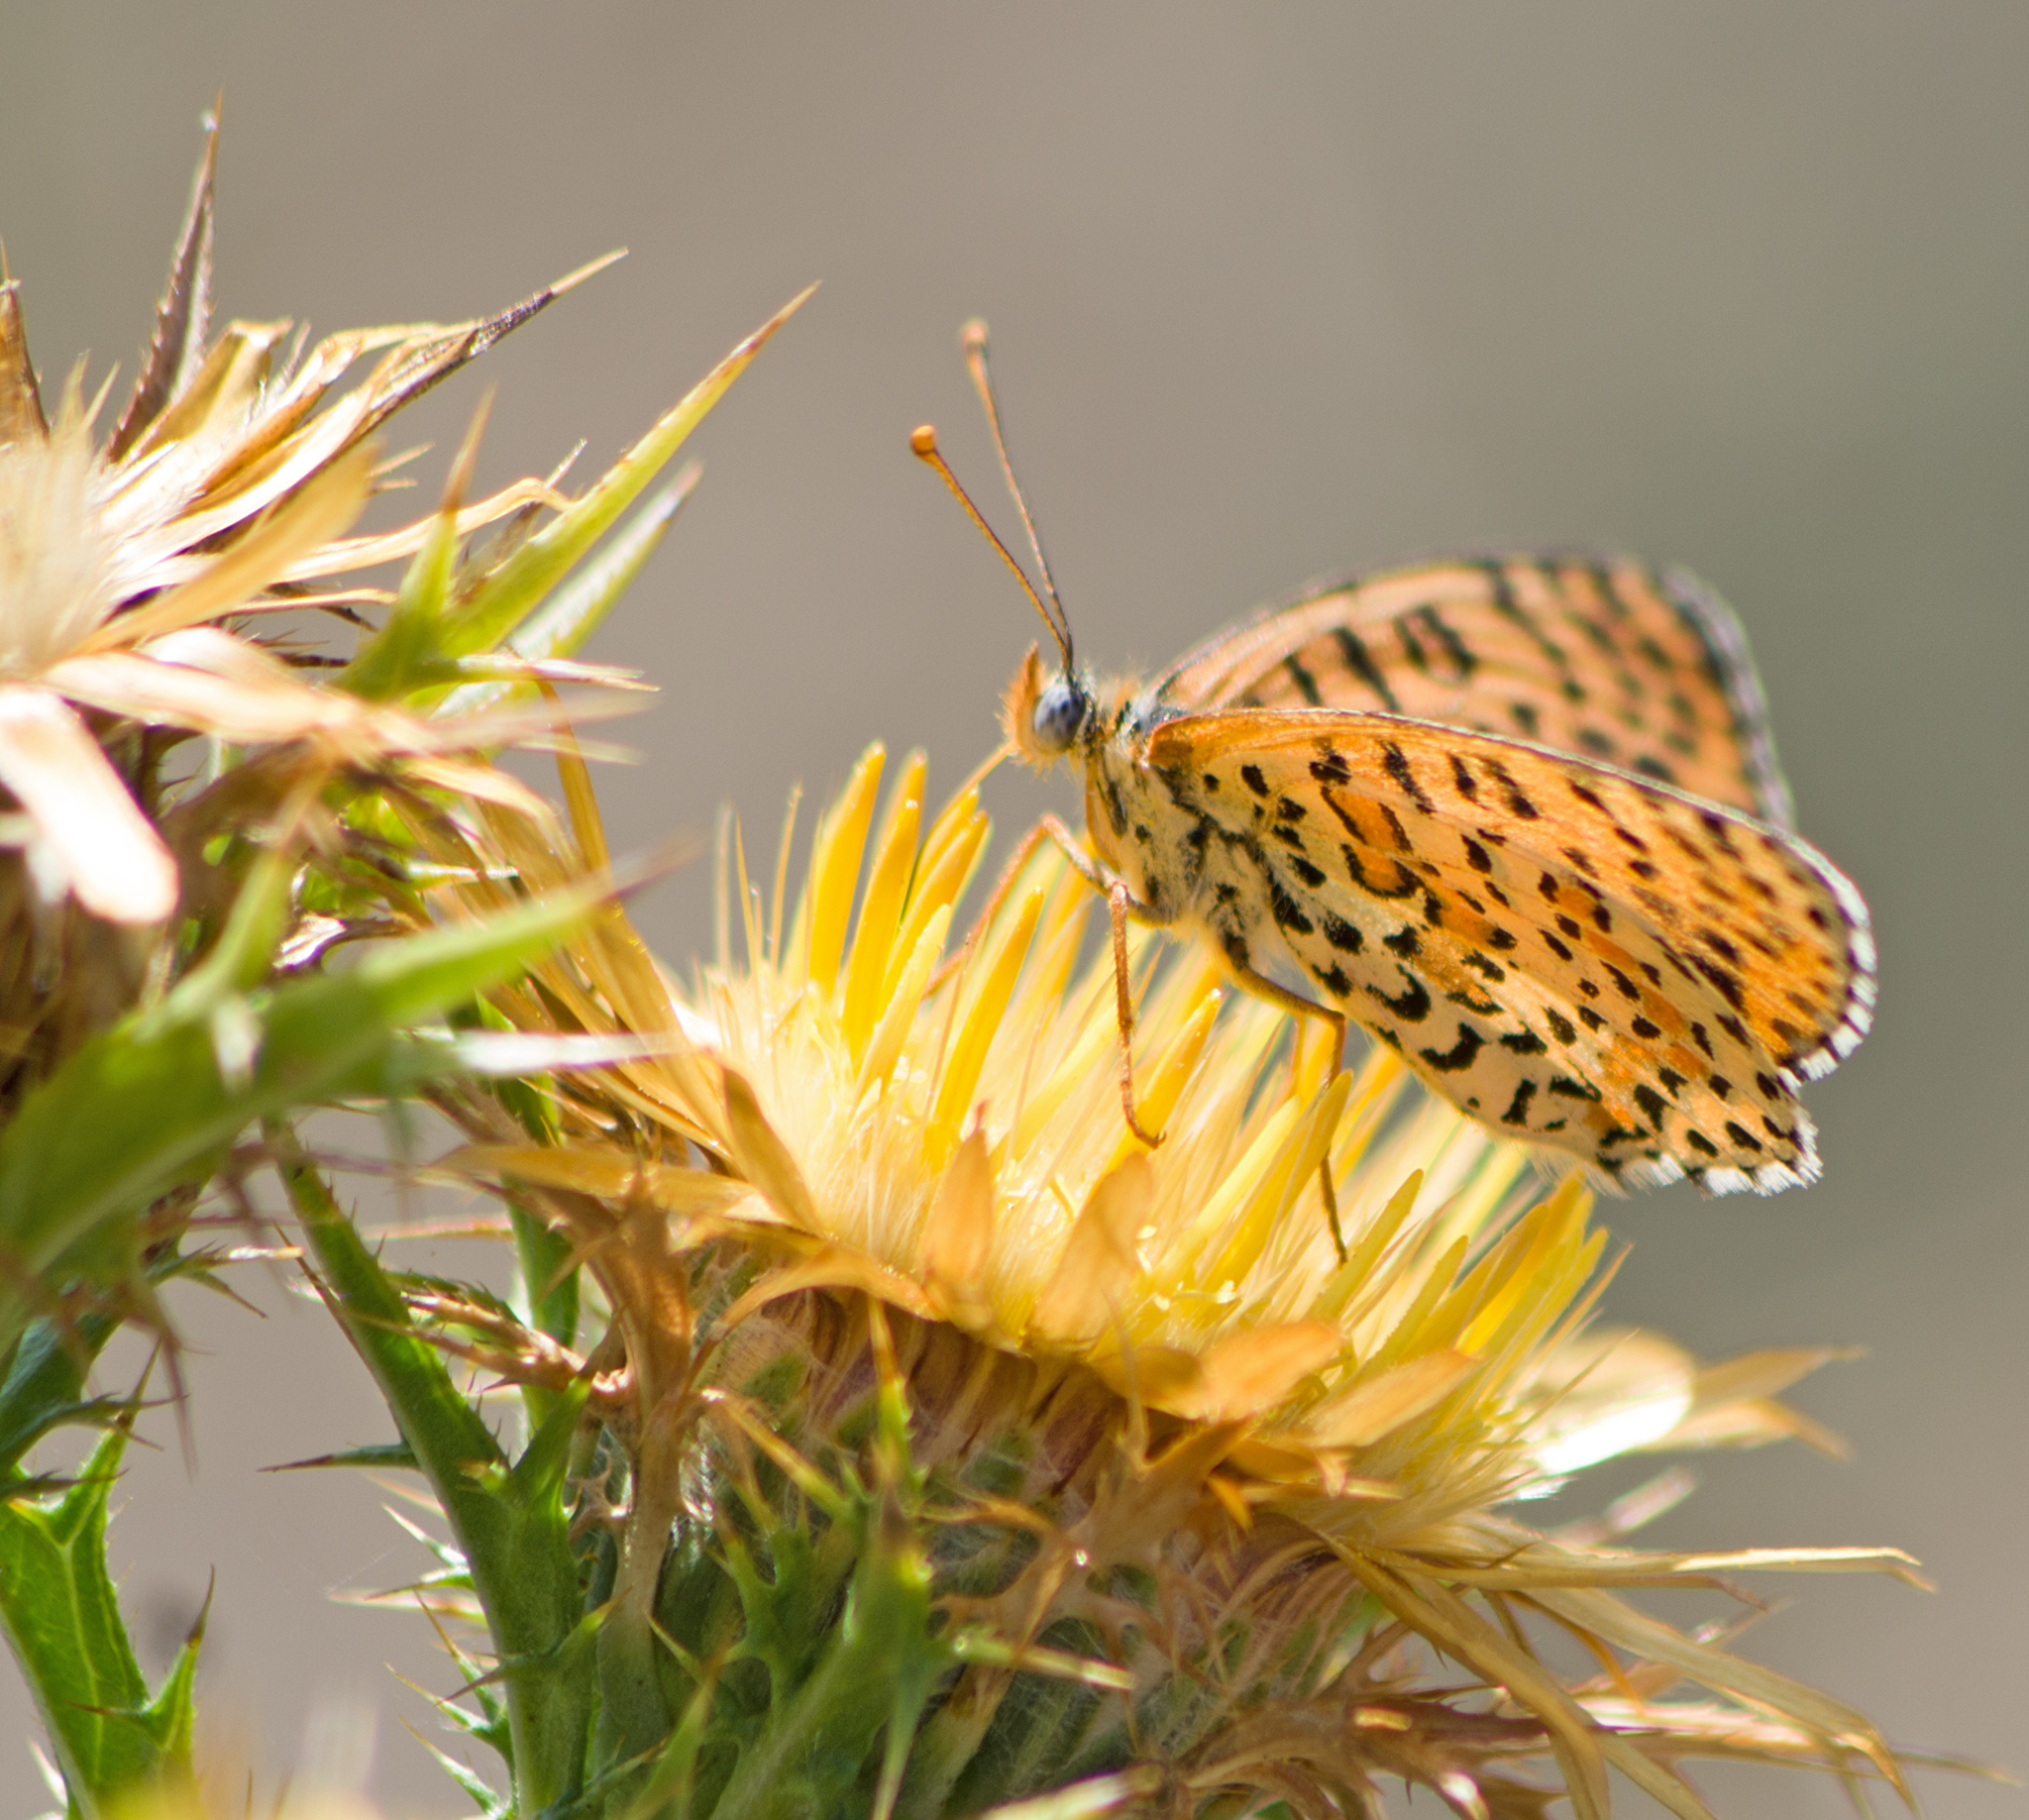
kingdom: Animalia
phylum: Arthropoda
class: Insecta
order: Lepidoptera
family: Nymphalidae
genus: Melitaea
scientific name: Melitaea didyma
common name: Spotted fritillary
